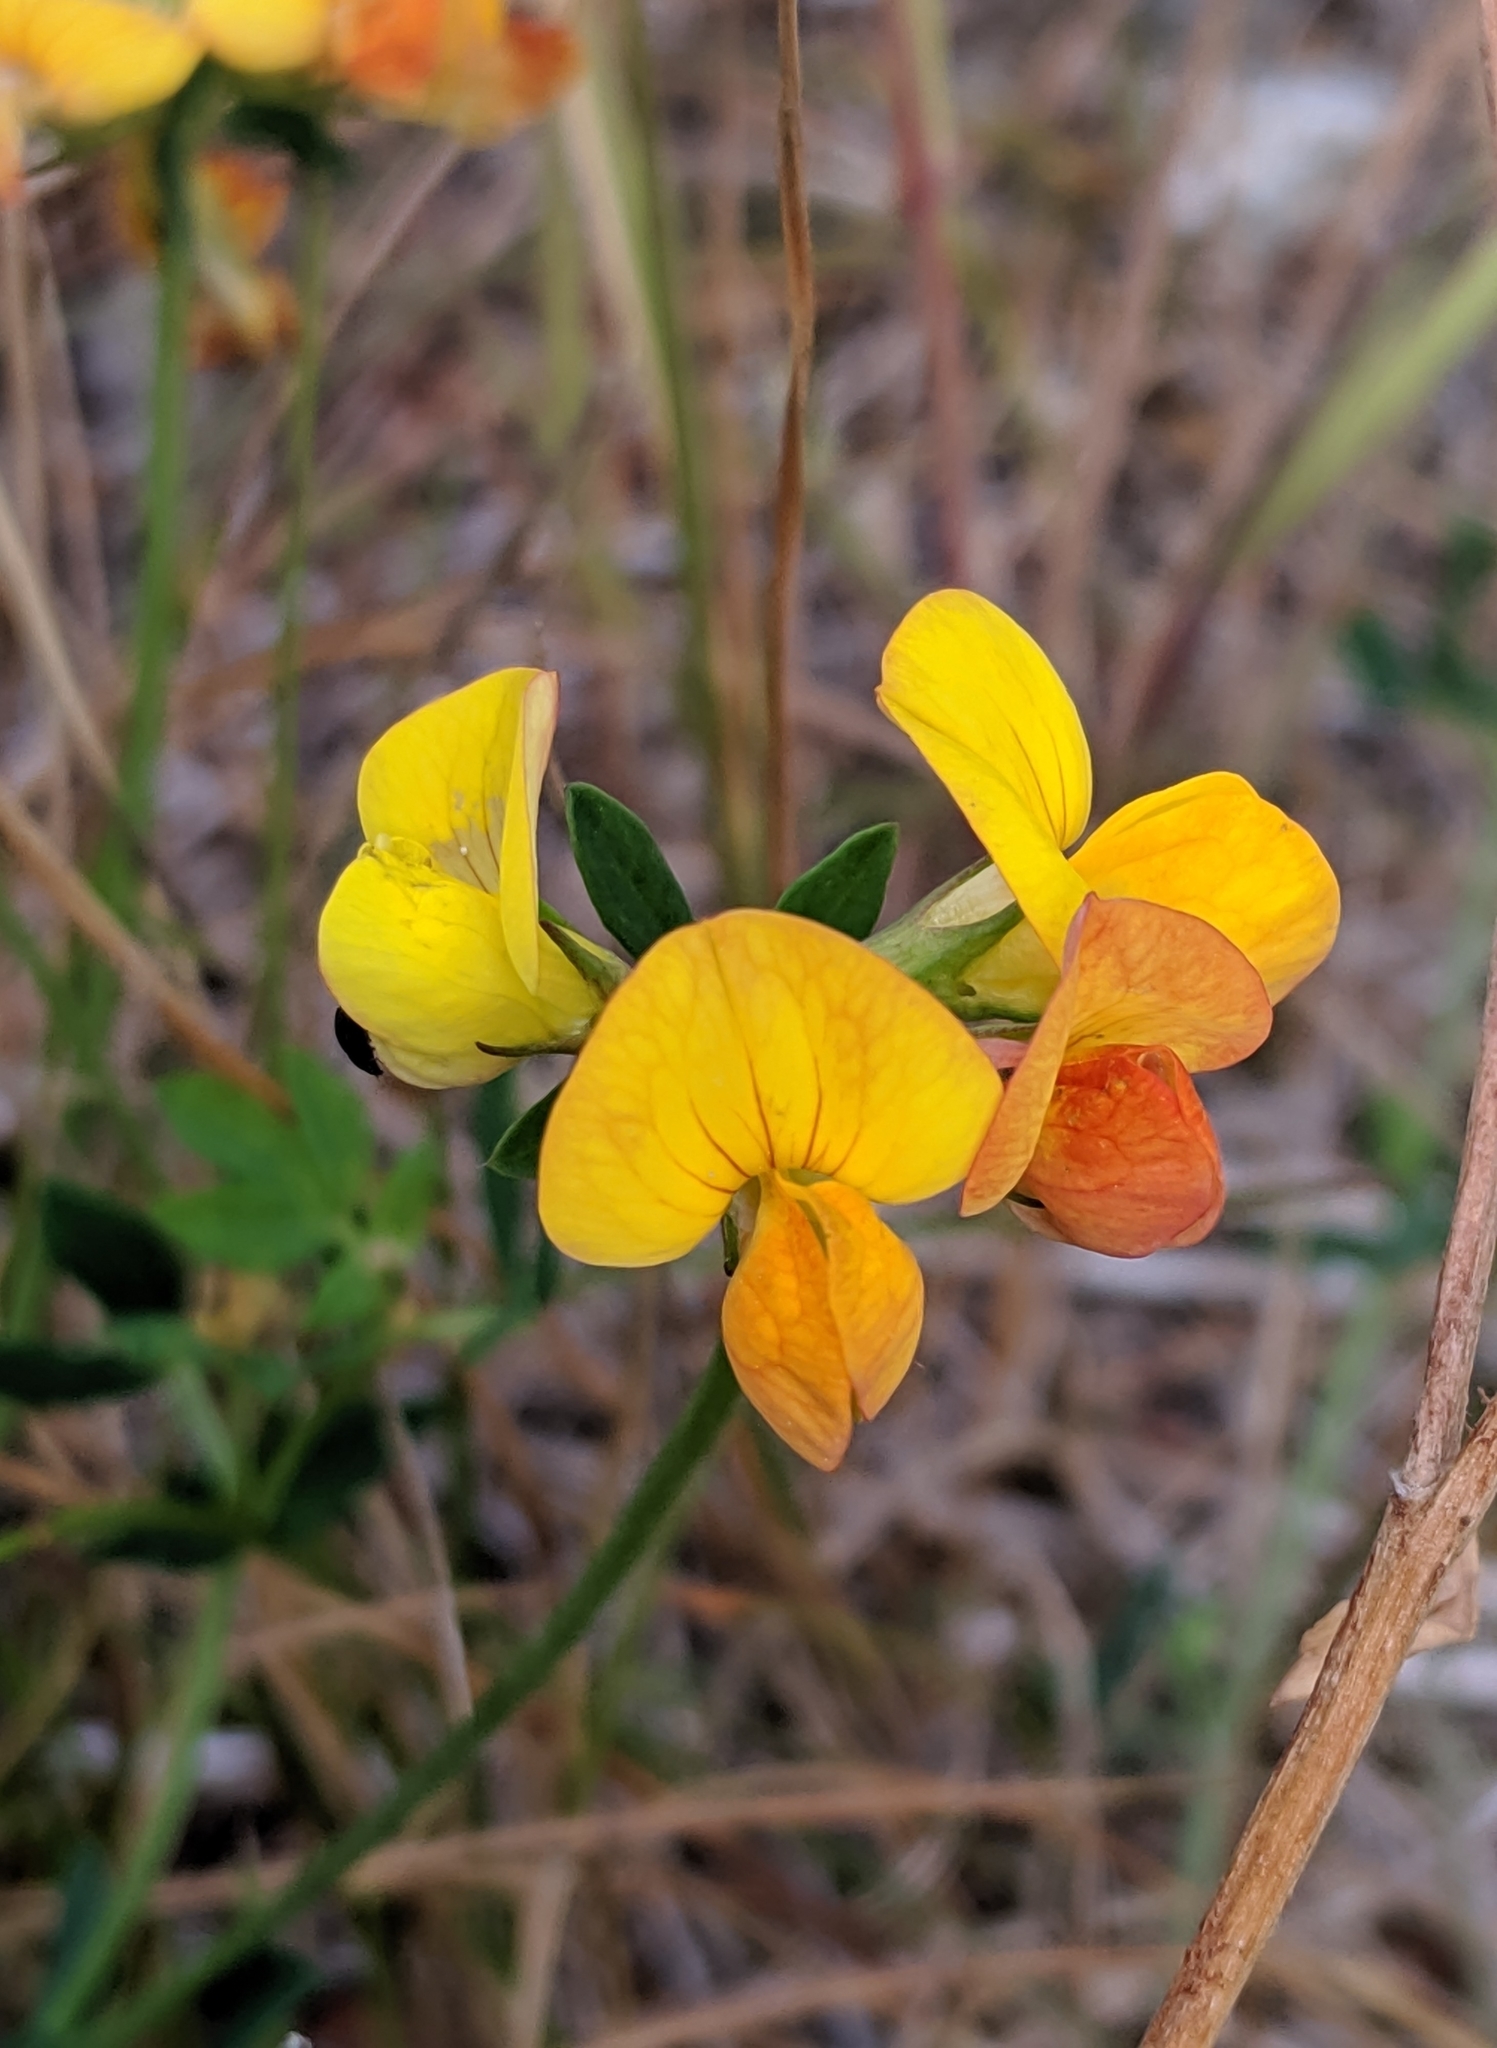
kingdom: Plantae
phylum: Tracheophyta
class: Magnoliopsida
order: Fabales
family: Fabaceae
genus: Lotus
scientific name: Lotus corniculatus
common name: Common bird's-foot-trefoil
